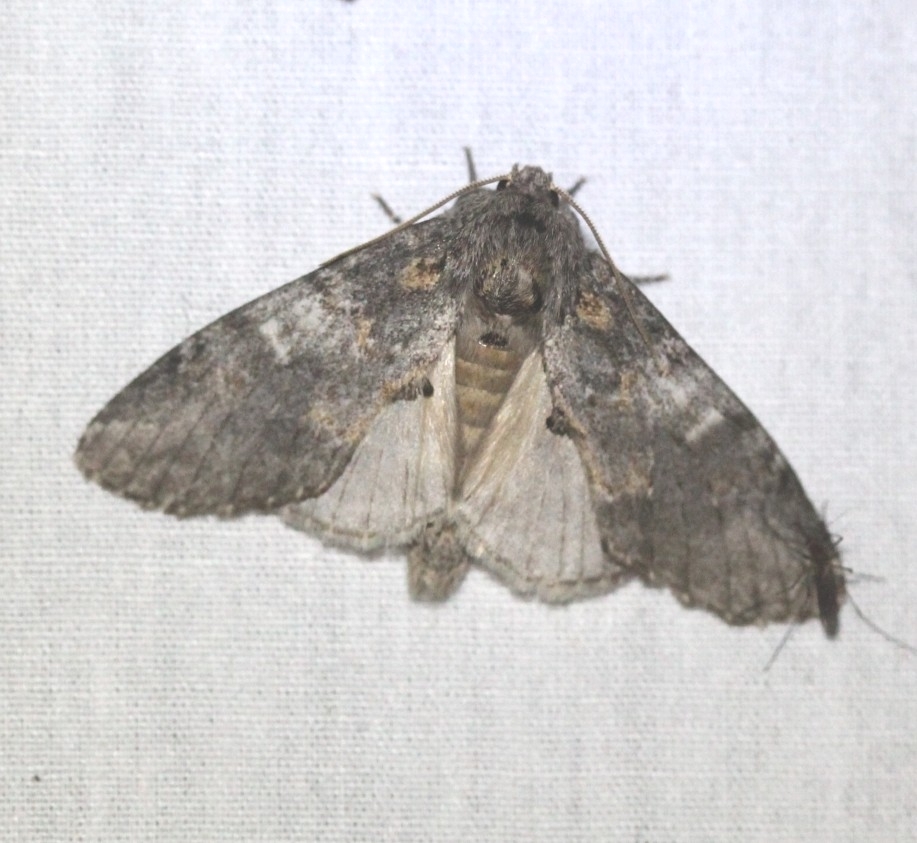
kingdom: Animalia
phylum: Arthropoda
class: Insecta
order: Lepidoptera
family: Notodontidae
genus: Peridea
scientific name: Peridea angulosa
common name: Angulose prominent
